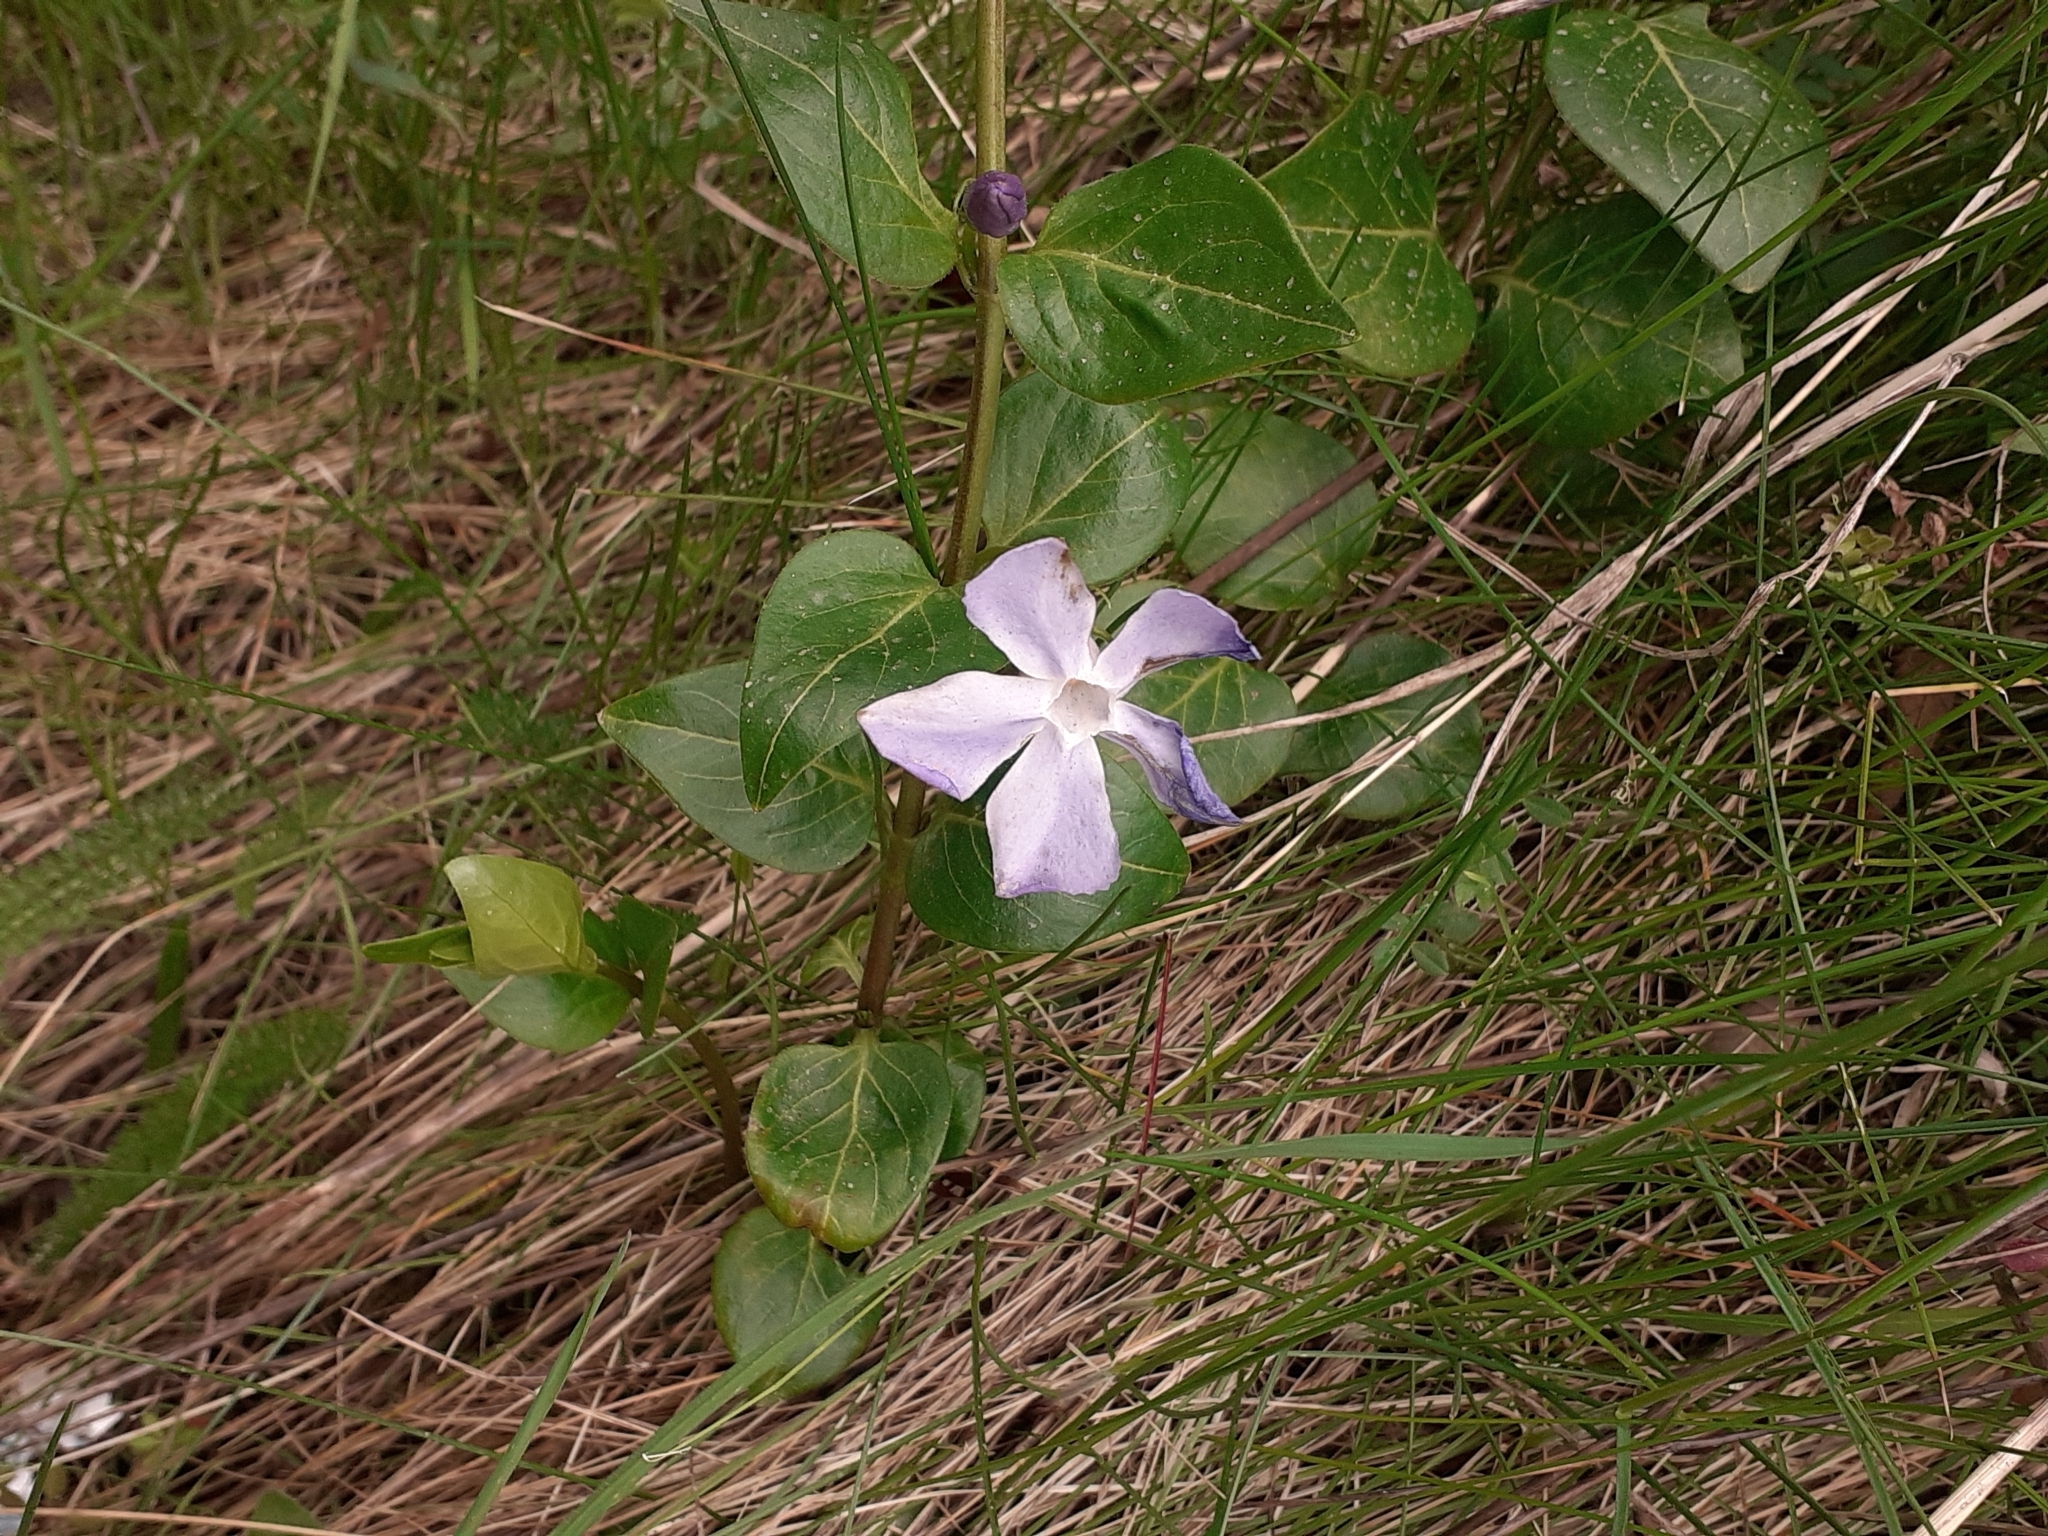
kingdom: Plantae
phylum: Tracheophyta
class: Magnoliopsida
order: Gentianales
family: Apocynaceae
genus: Vinca
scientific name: Vinca major
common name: Greater periwinkle
